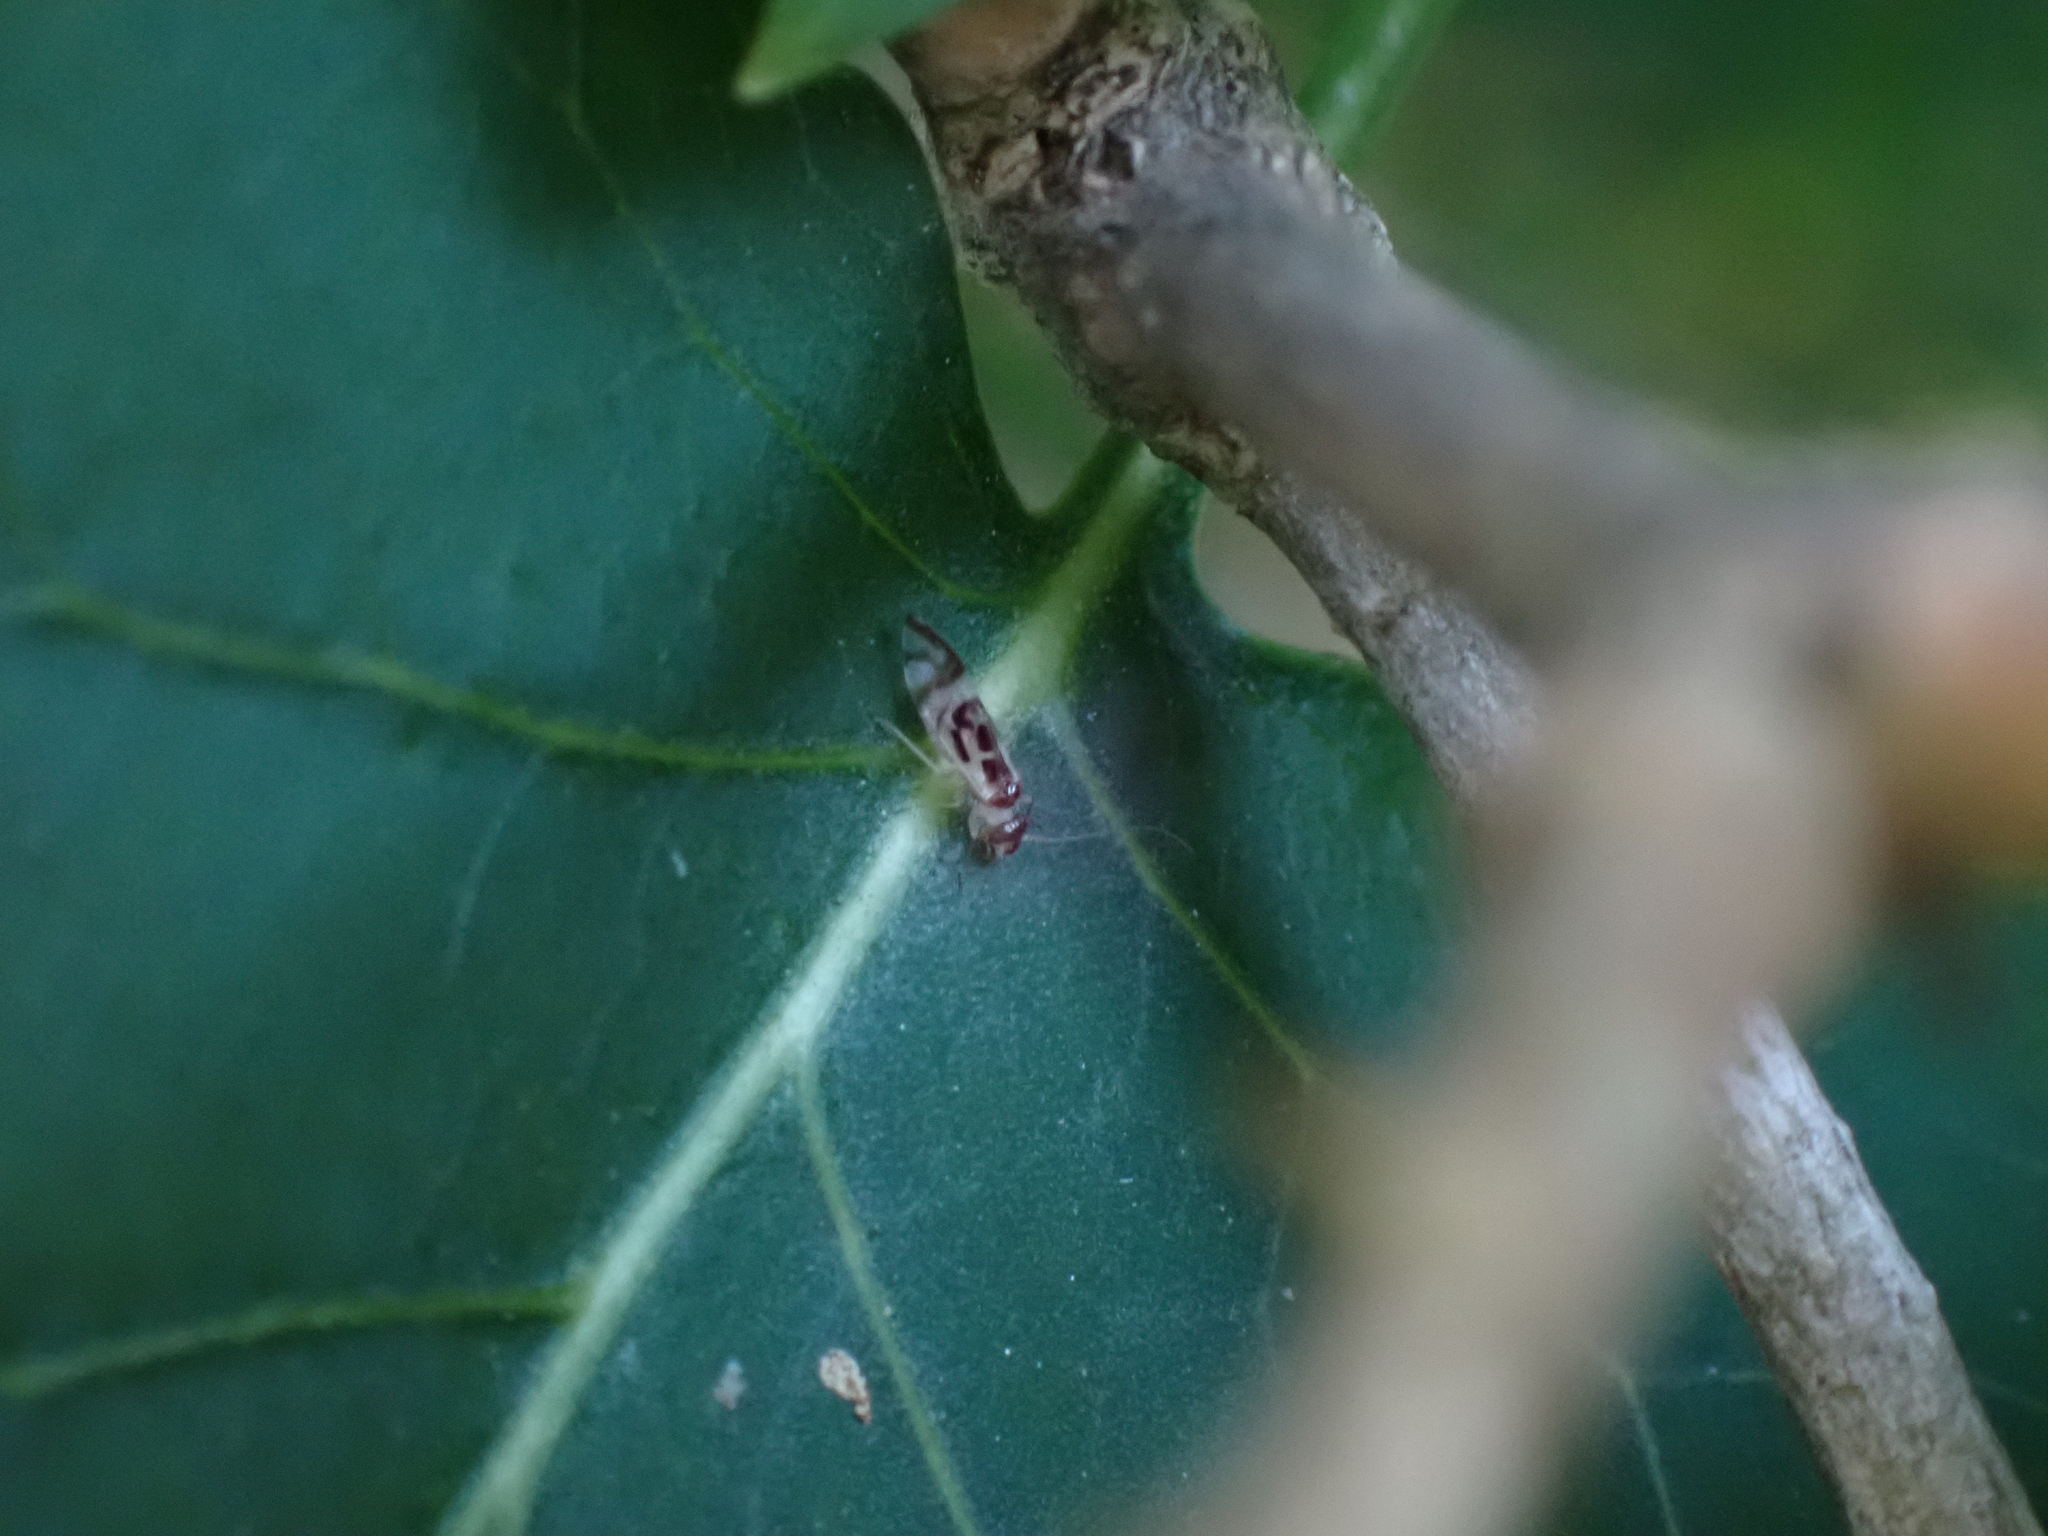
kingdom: Animalia
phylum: Arthropoda
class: Insecta
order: Psocodea
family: Stenopsocidae
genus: Graphopsocus
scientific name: Graphopsocus cruciatus
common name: Lizard bark louse
